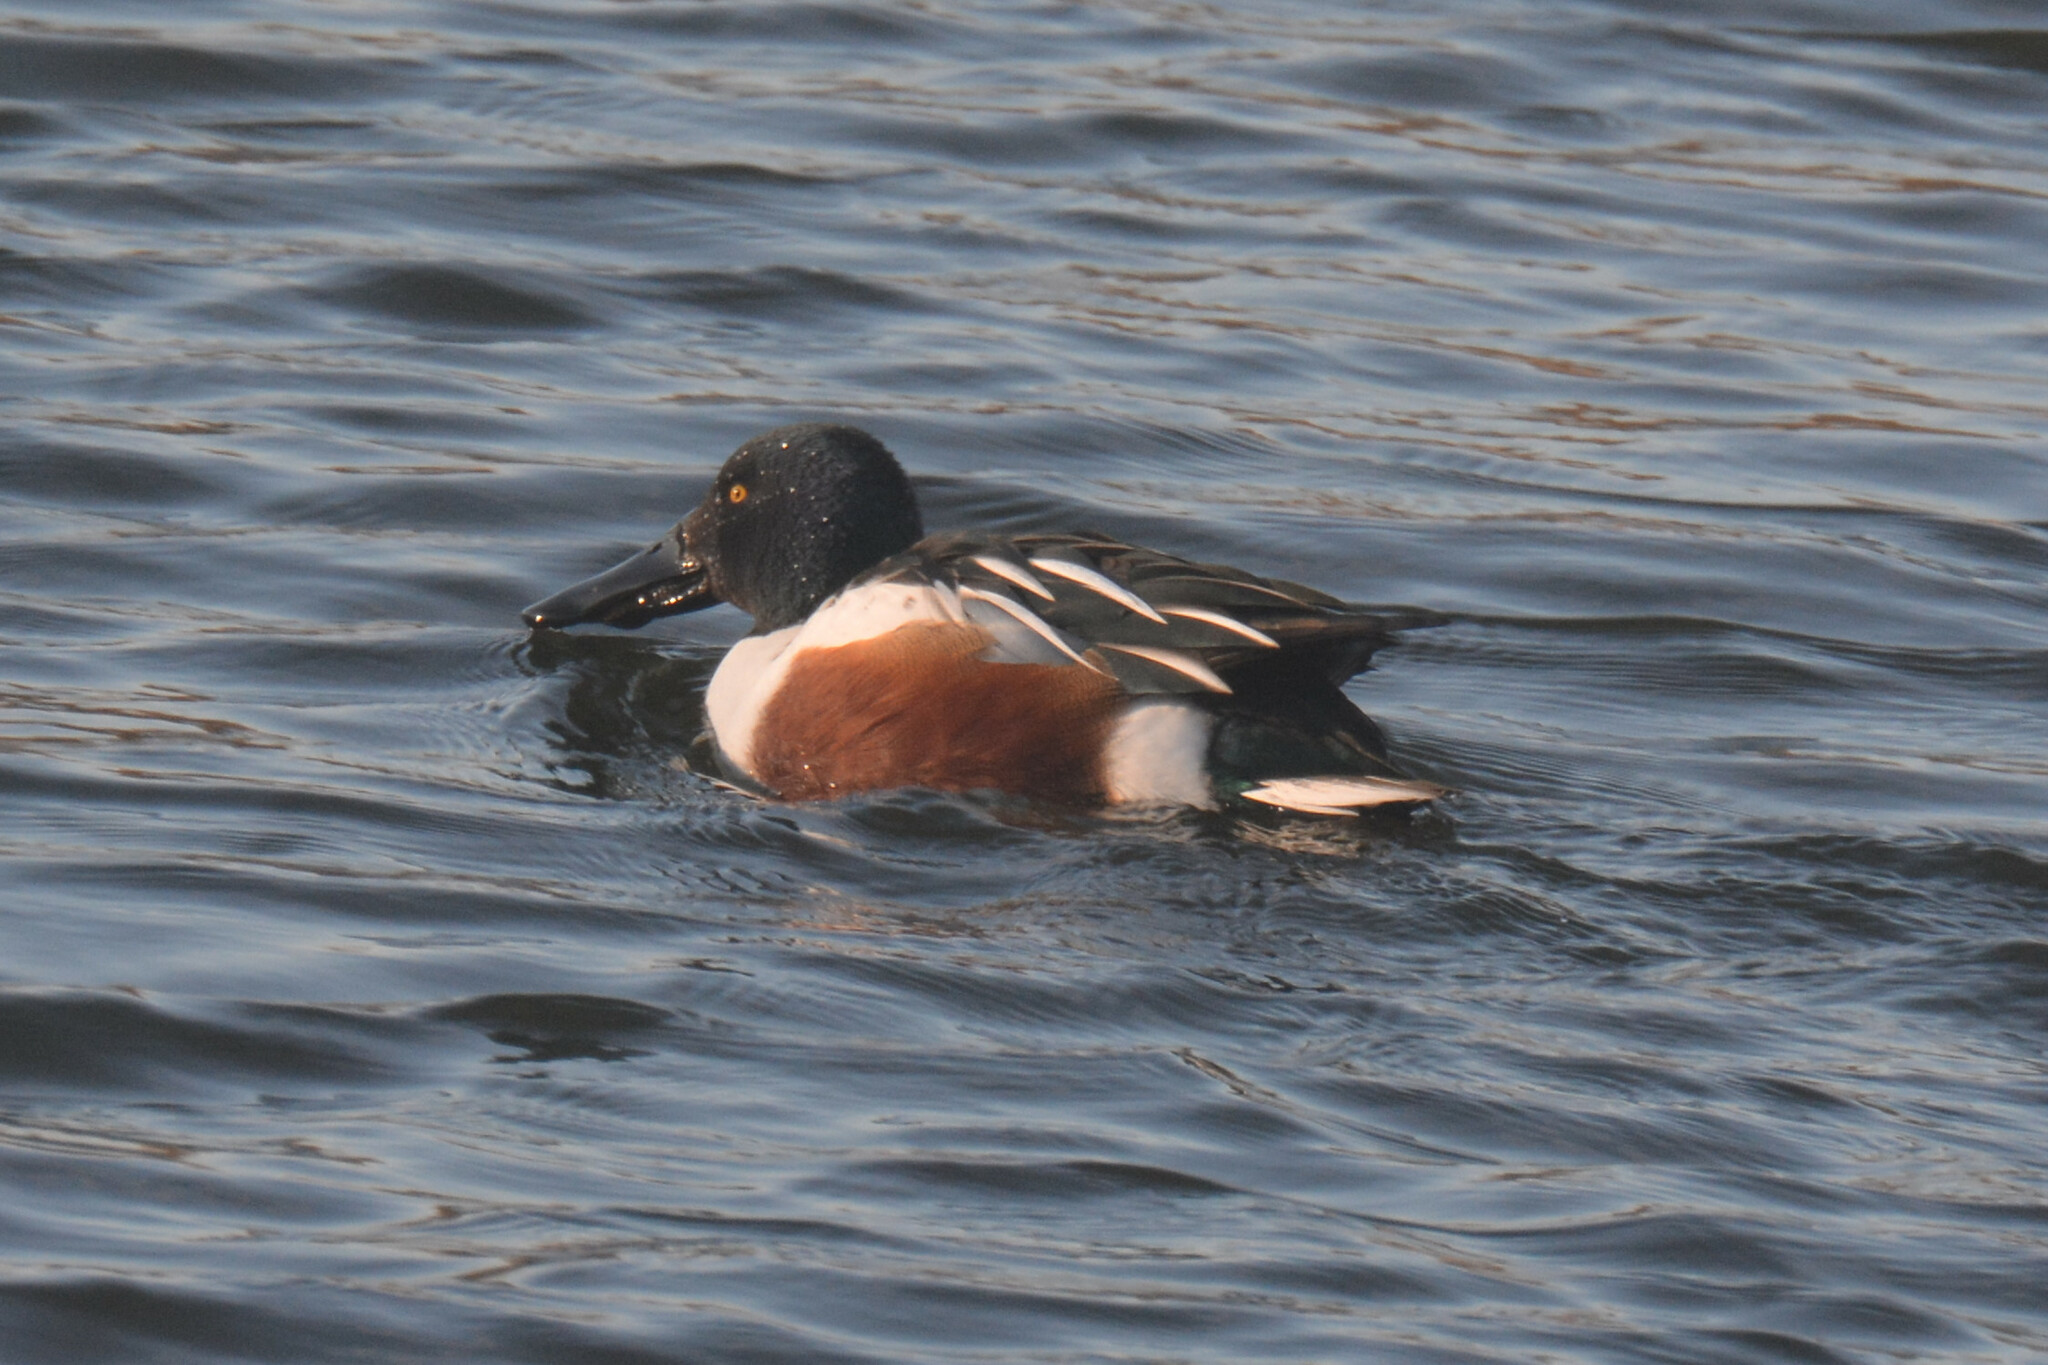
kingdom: Animalia
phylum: Chordata
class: Aves
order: Anseriformes
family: Anatidae
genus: Spatula
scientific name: Spatula clypeata
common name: Northern shoveler
